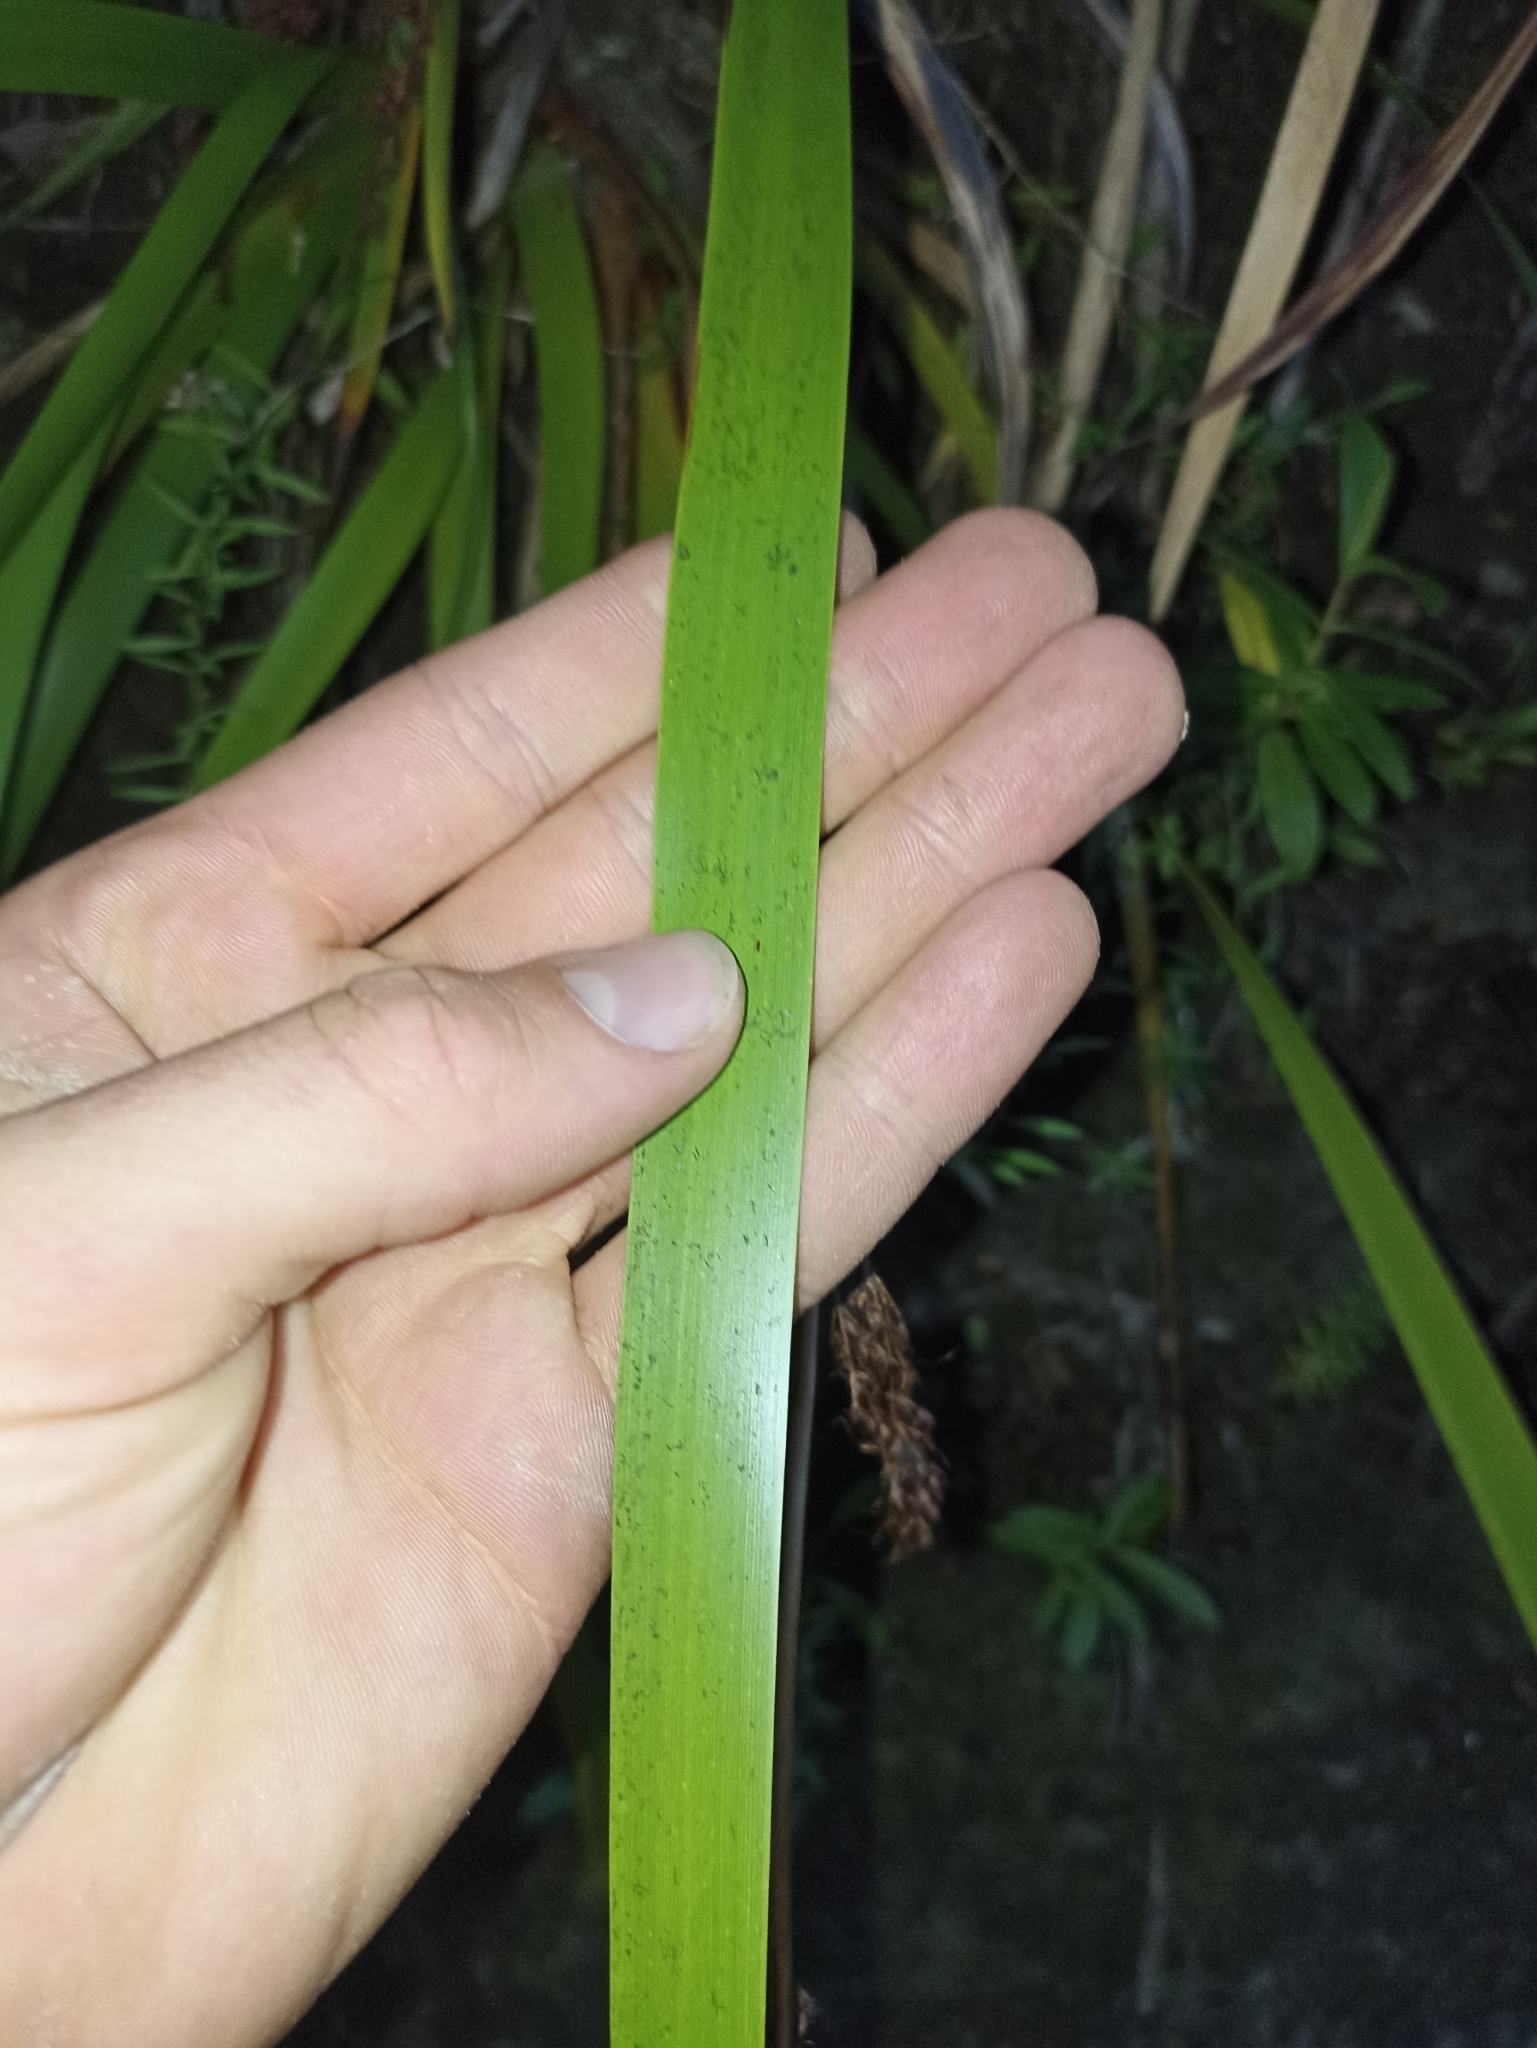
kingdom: Plantae
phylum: Tracheophyta
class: Liliopsida
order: Poales
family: Cyperaceae
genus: Machaerina
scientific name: Machaerina sinclairii
